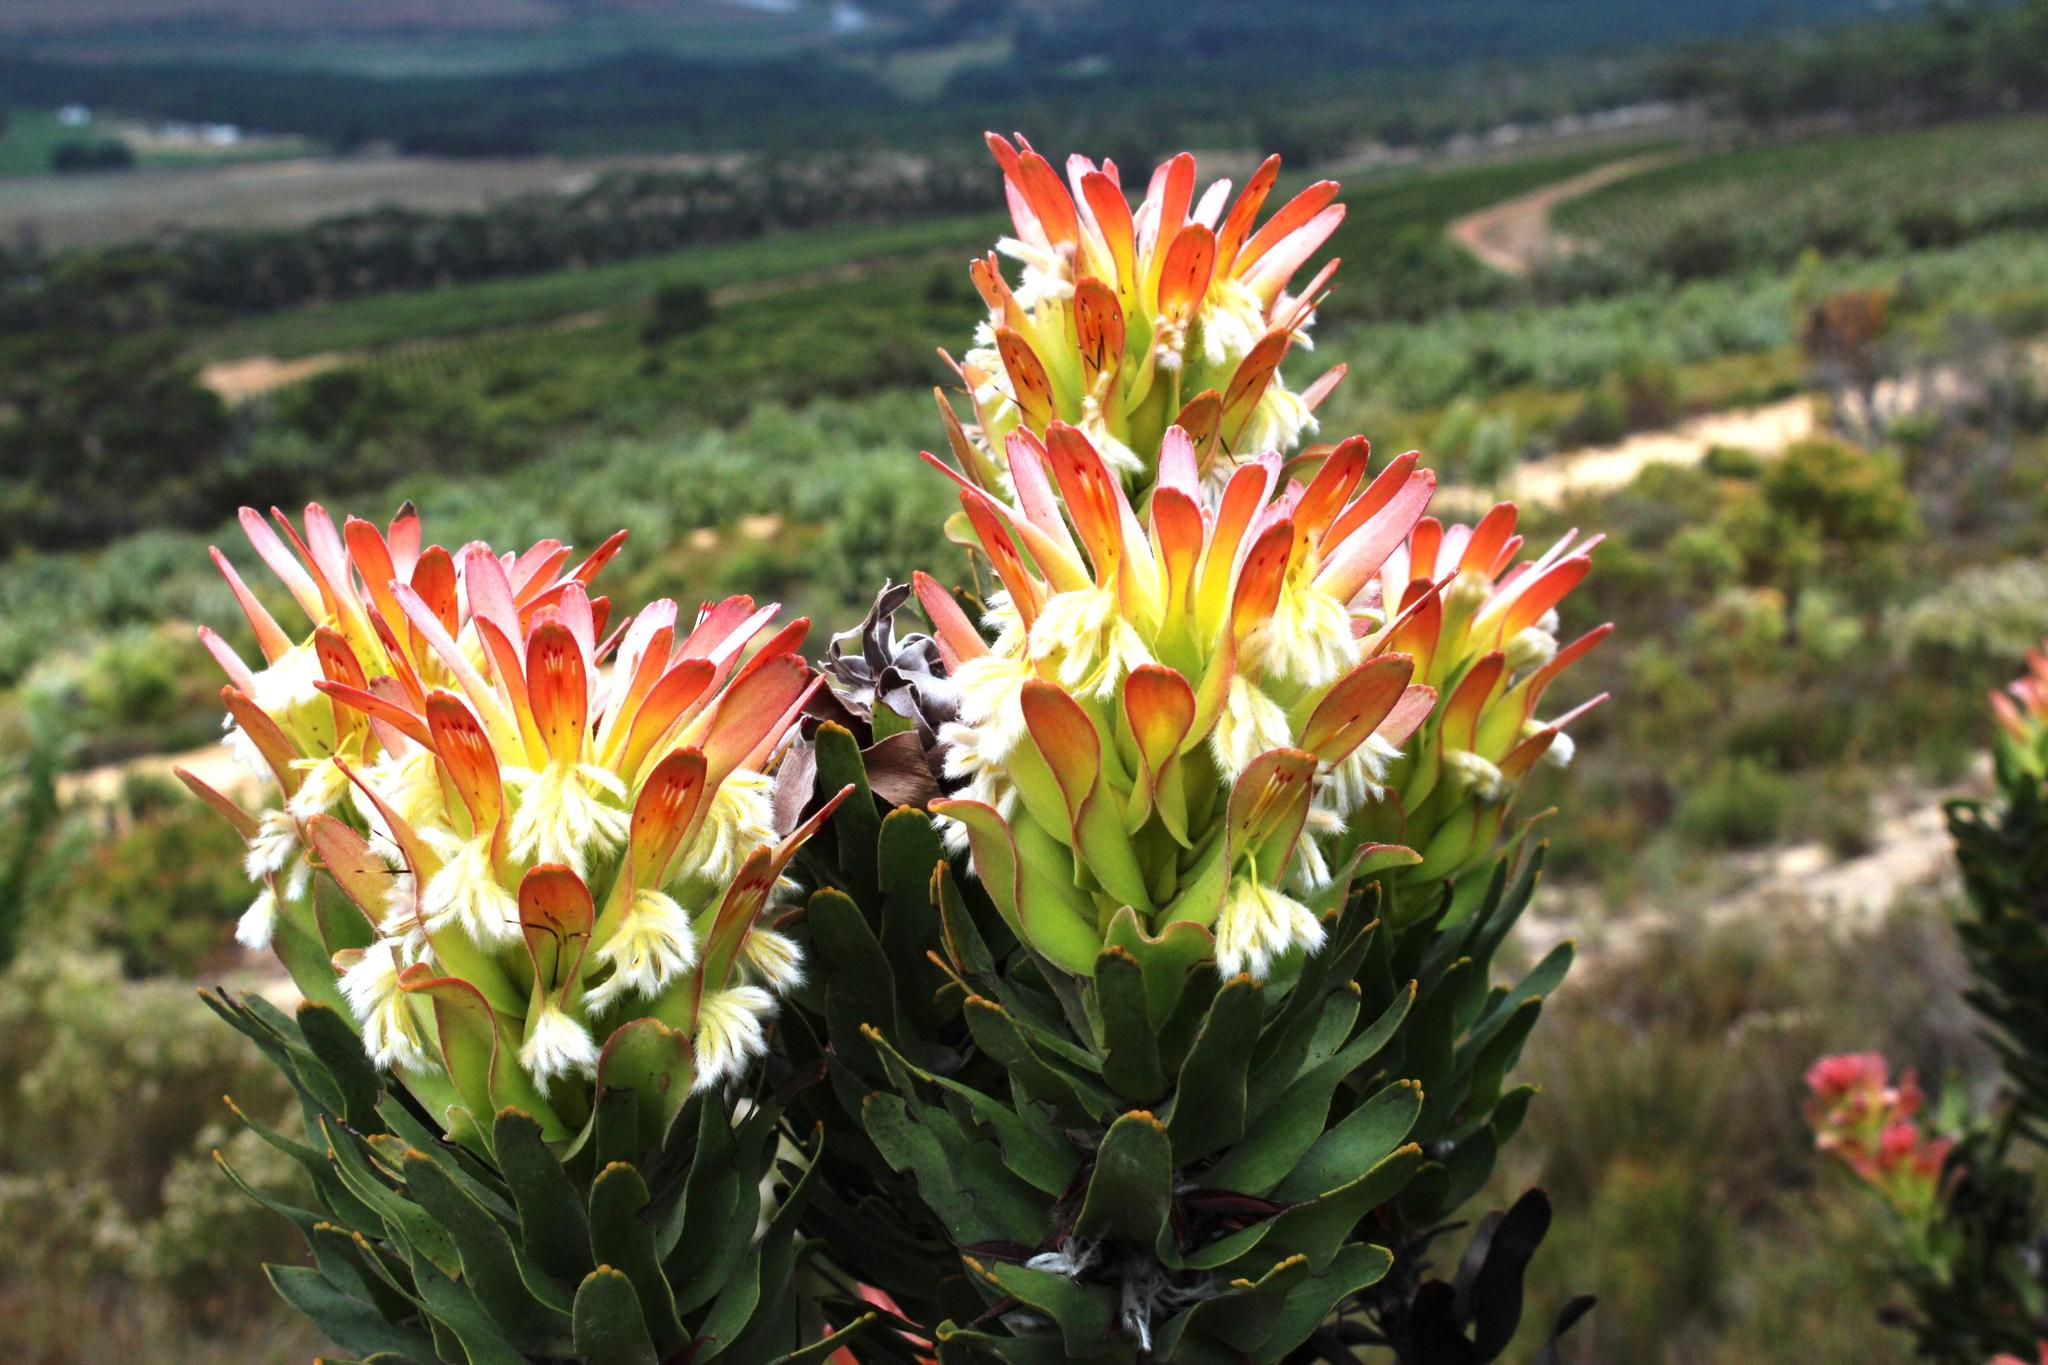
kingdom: Plantae
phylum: Tracheophyta
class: Magnoliopsida
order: Proteales
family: Proteaceae
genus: Mimetes
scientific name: Mimetes cucullatus
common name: Common pagoda
